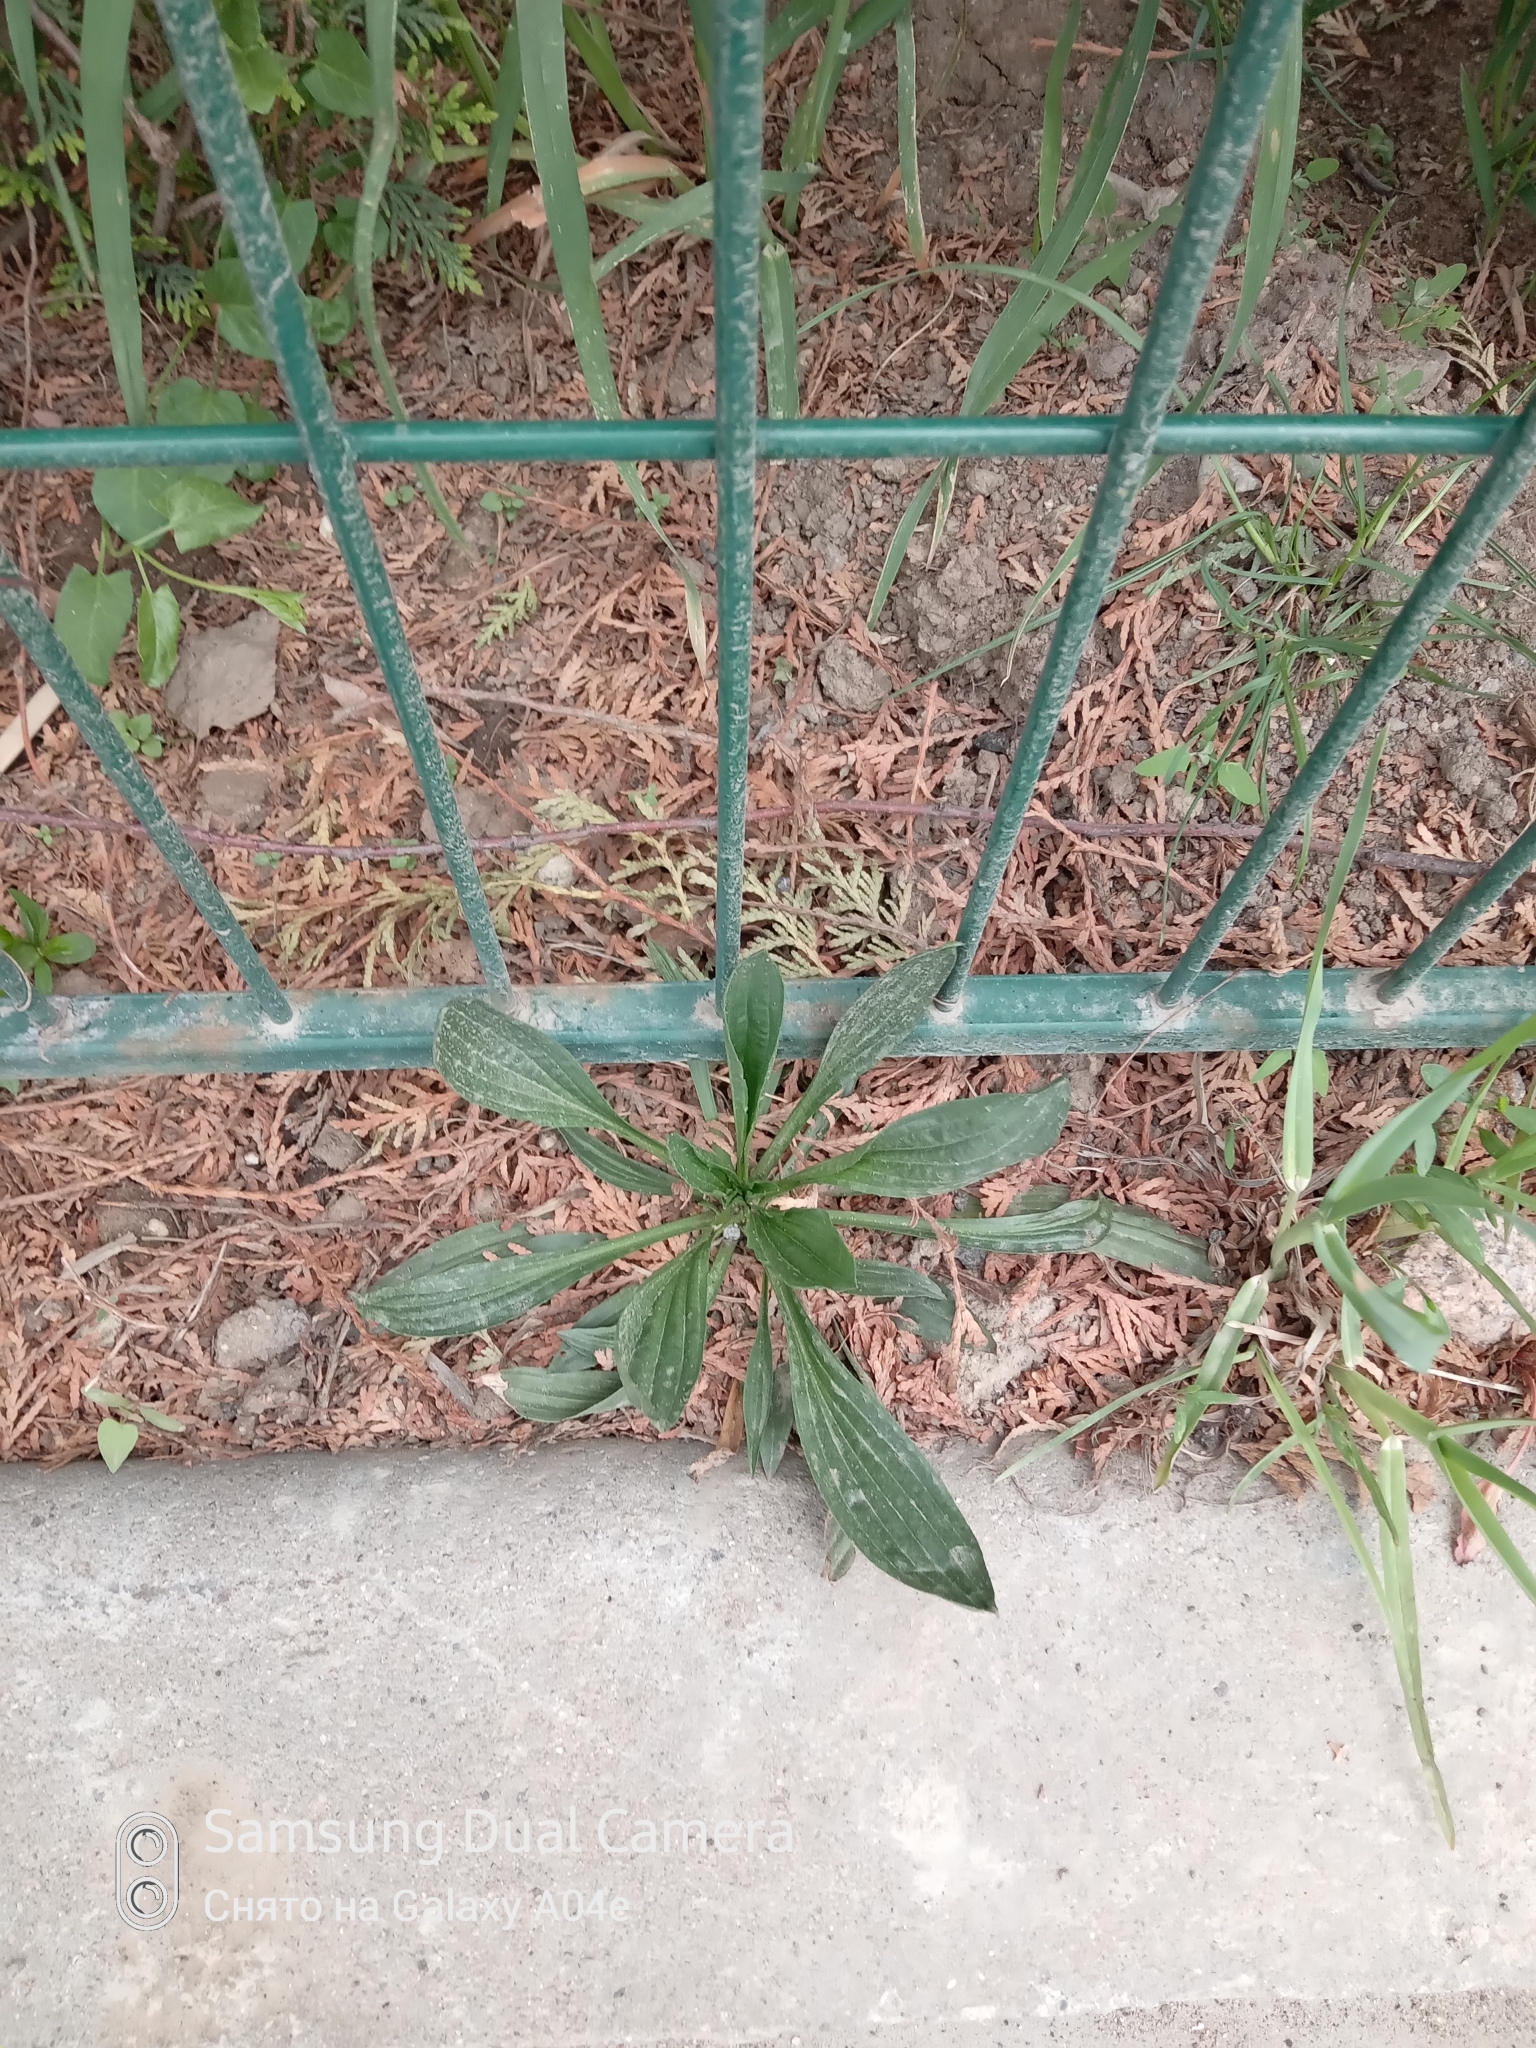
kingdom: Plantae
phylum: Tracheophyta
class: Magnoliopsida
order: Lamiales
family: Plantaginaceae
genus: Plantago
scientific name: Plantago lanceolata
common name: Ribwort plantain
